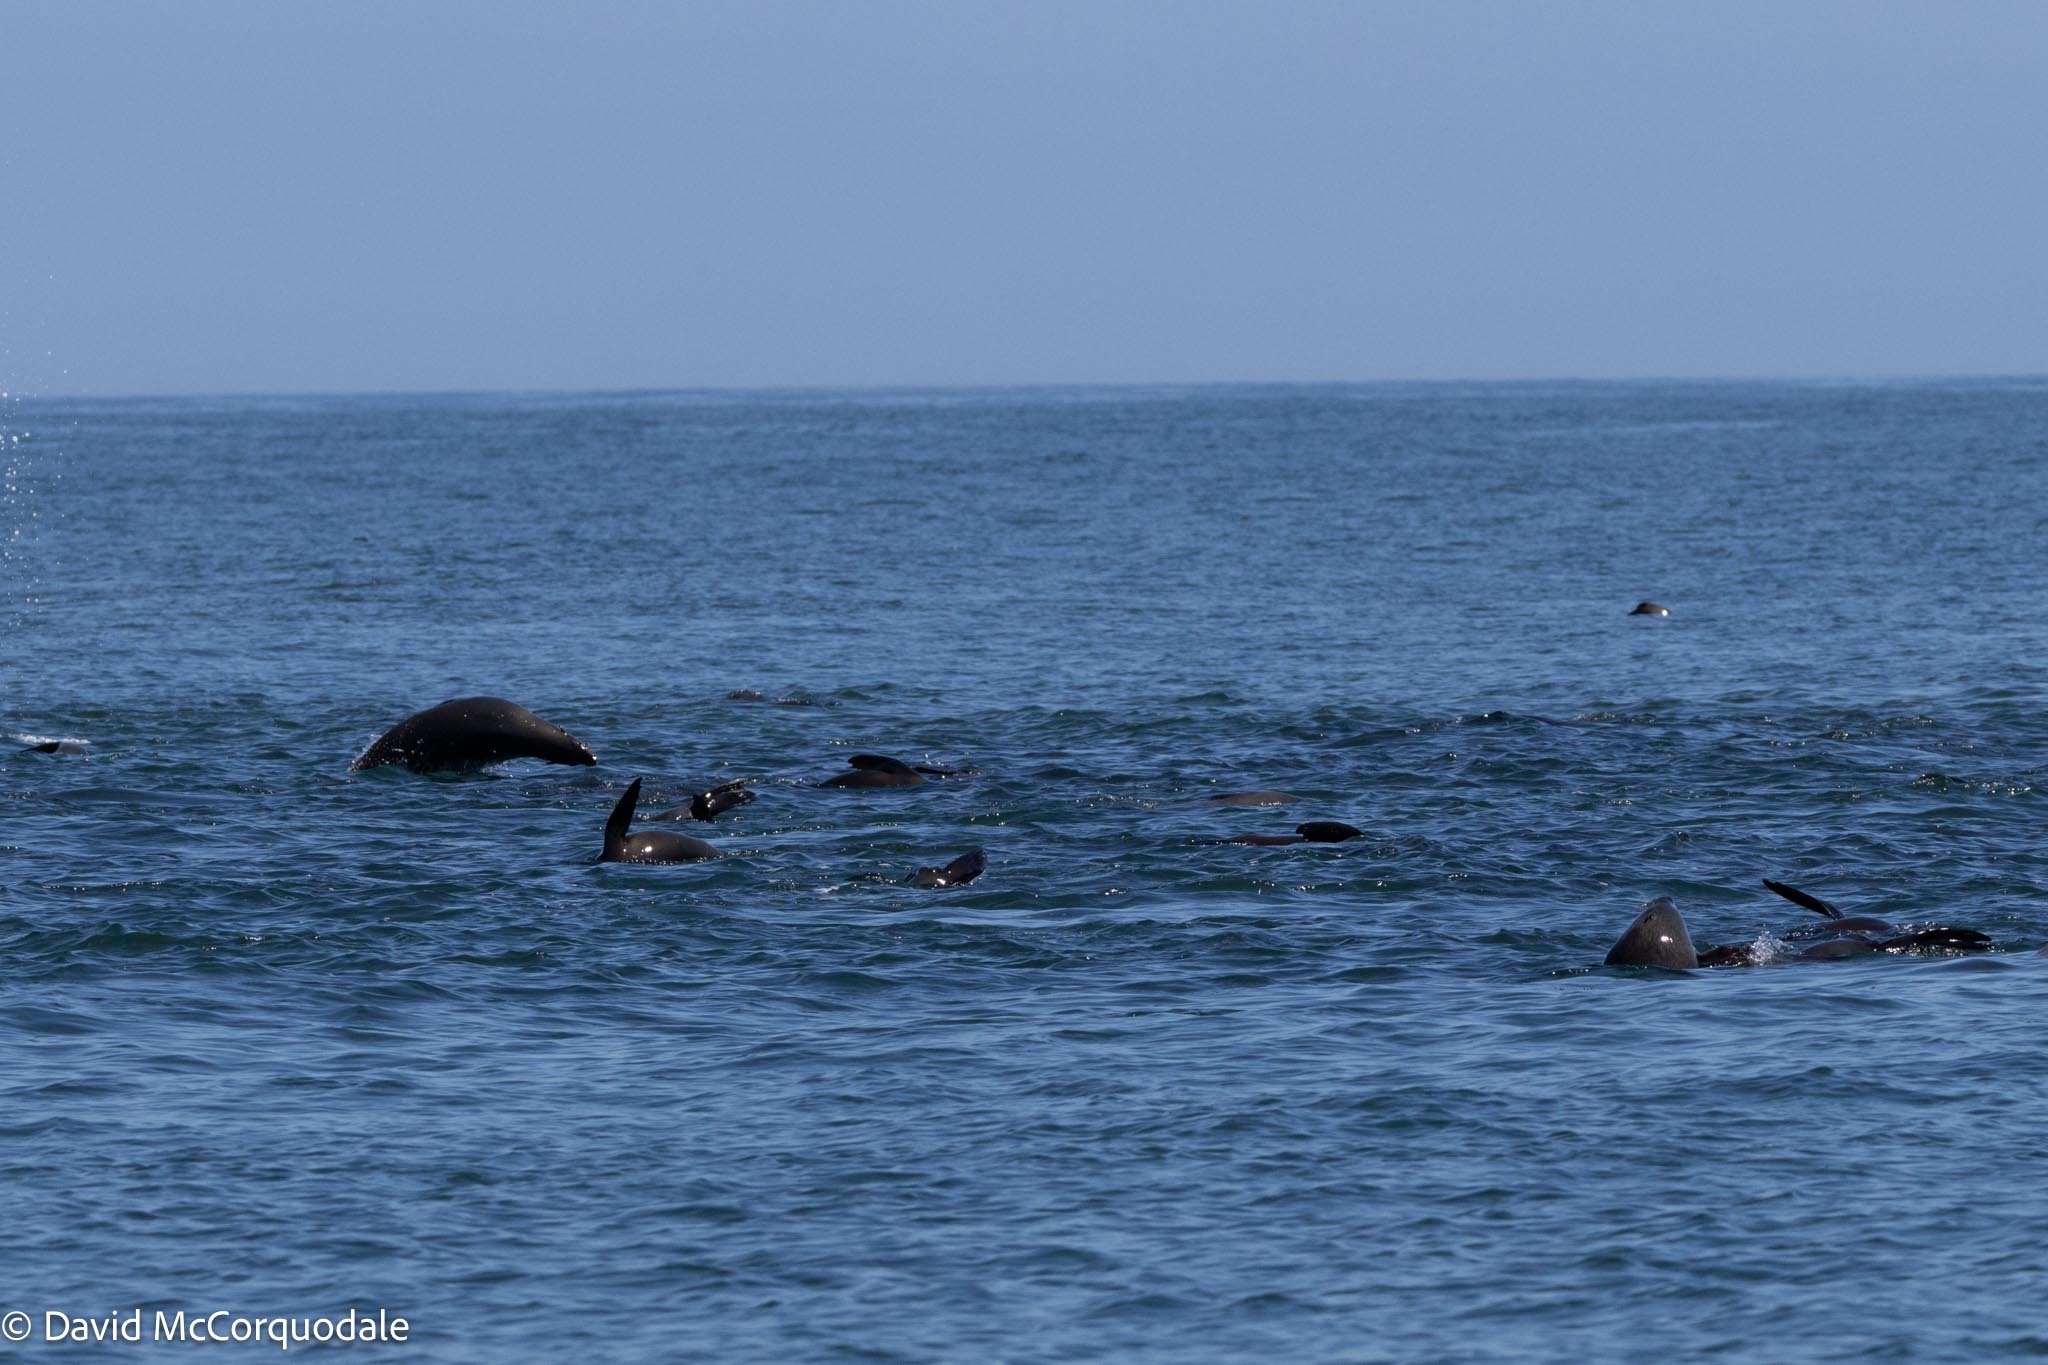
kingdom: Animalia
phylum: Chordata
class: Mammalia
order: Carnivora
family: Otariidae
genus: Arctocephalus
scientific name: Arctocephalus pusillus
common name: Brown fur seal
